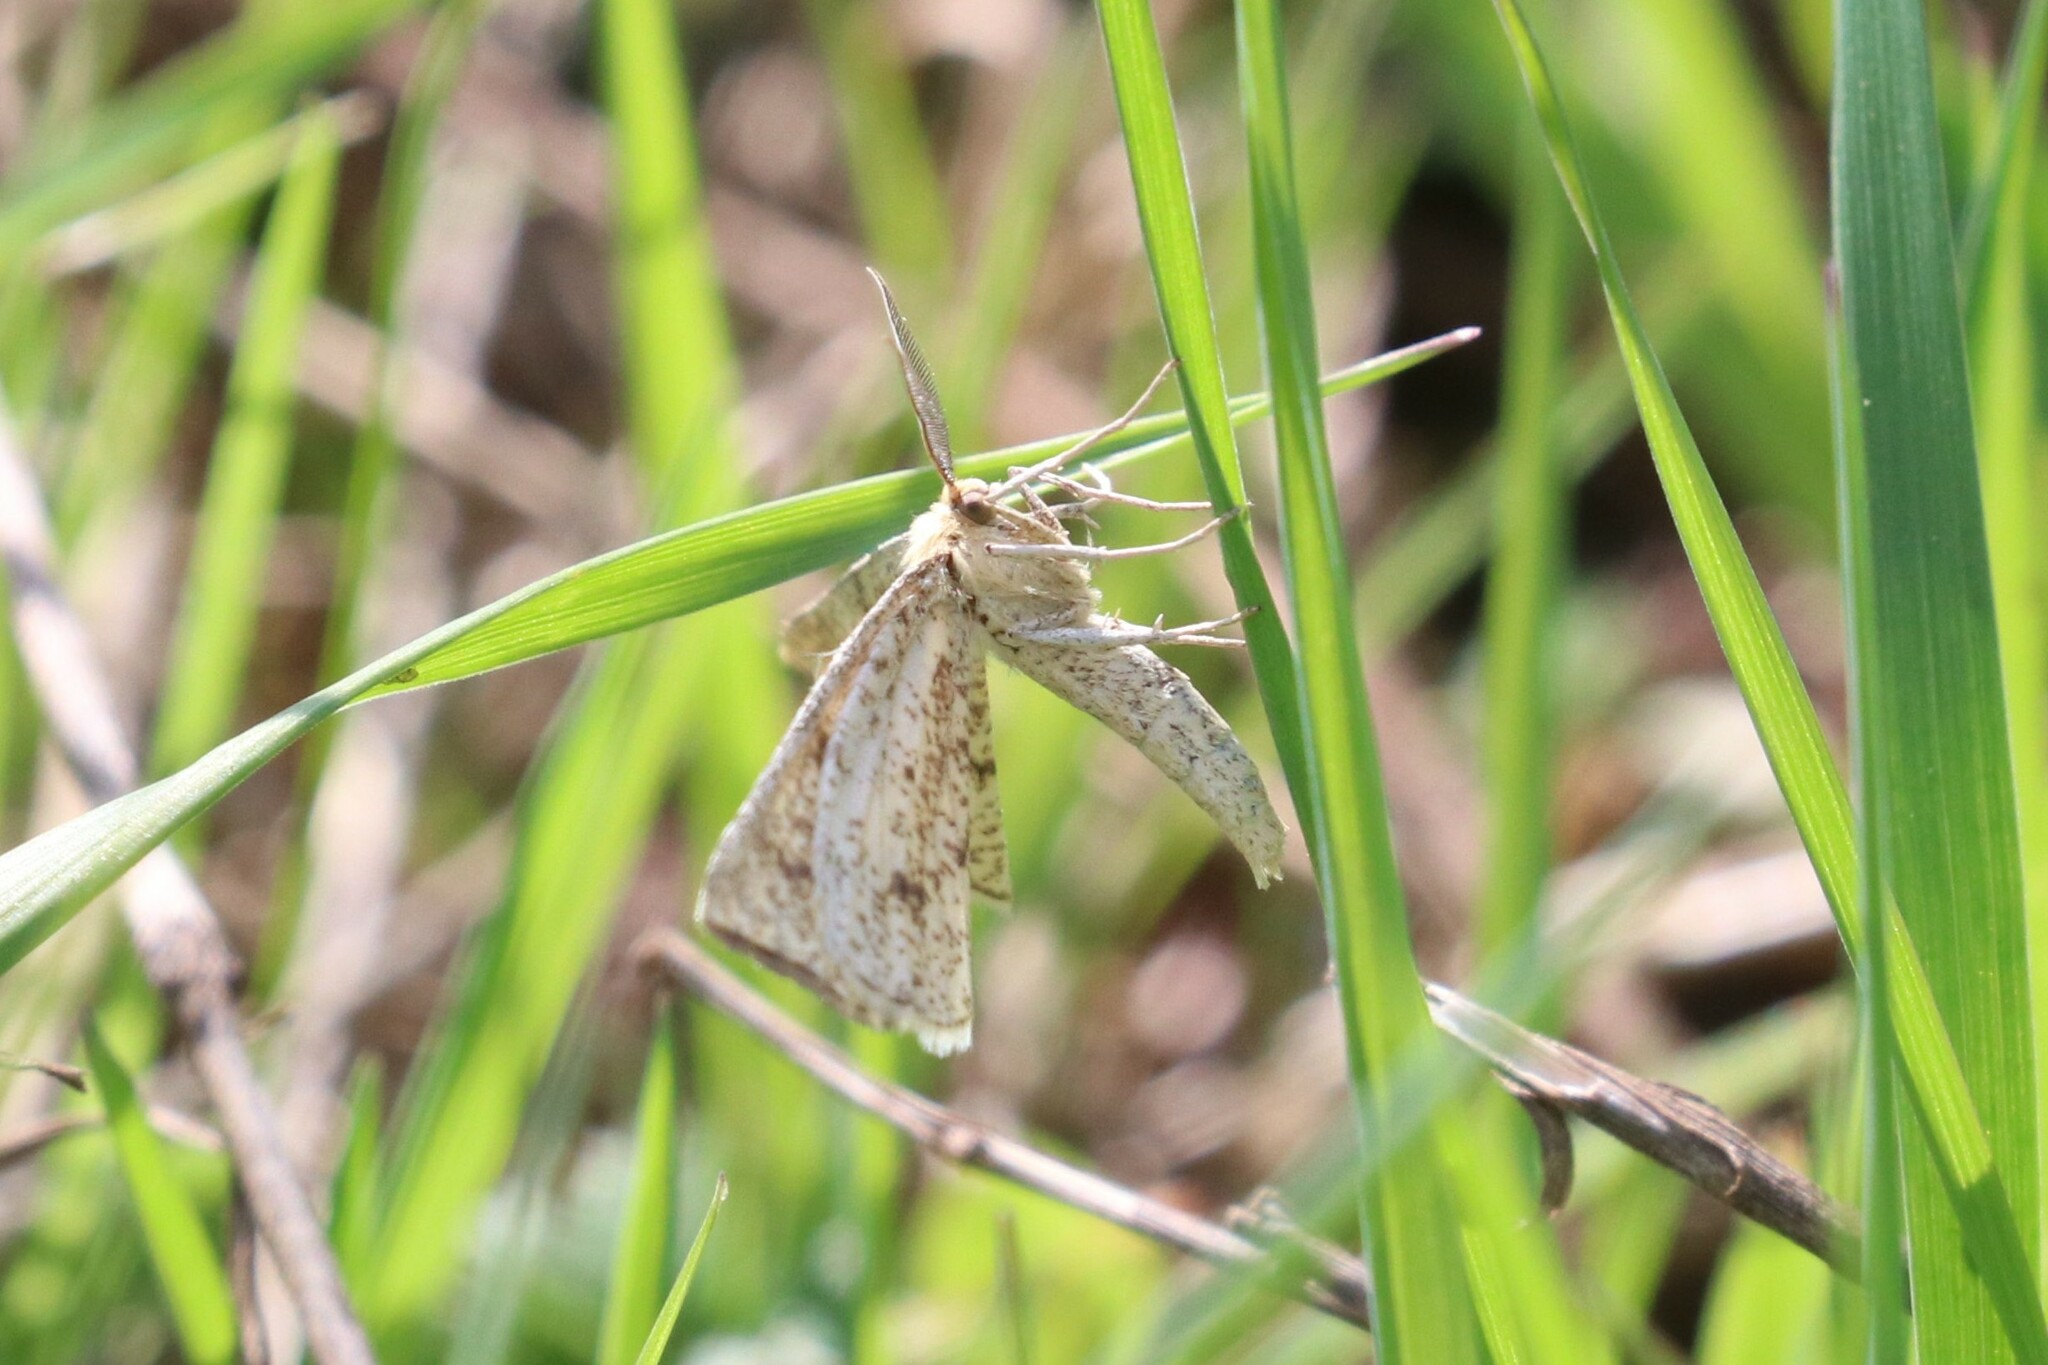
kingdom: Animalia
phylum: Arthropoda
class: Insecta
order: Lepidoptera
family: Geometridae
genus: Hypoxystis
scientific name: Hypoxystis pluviaria
